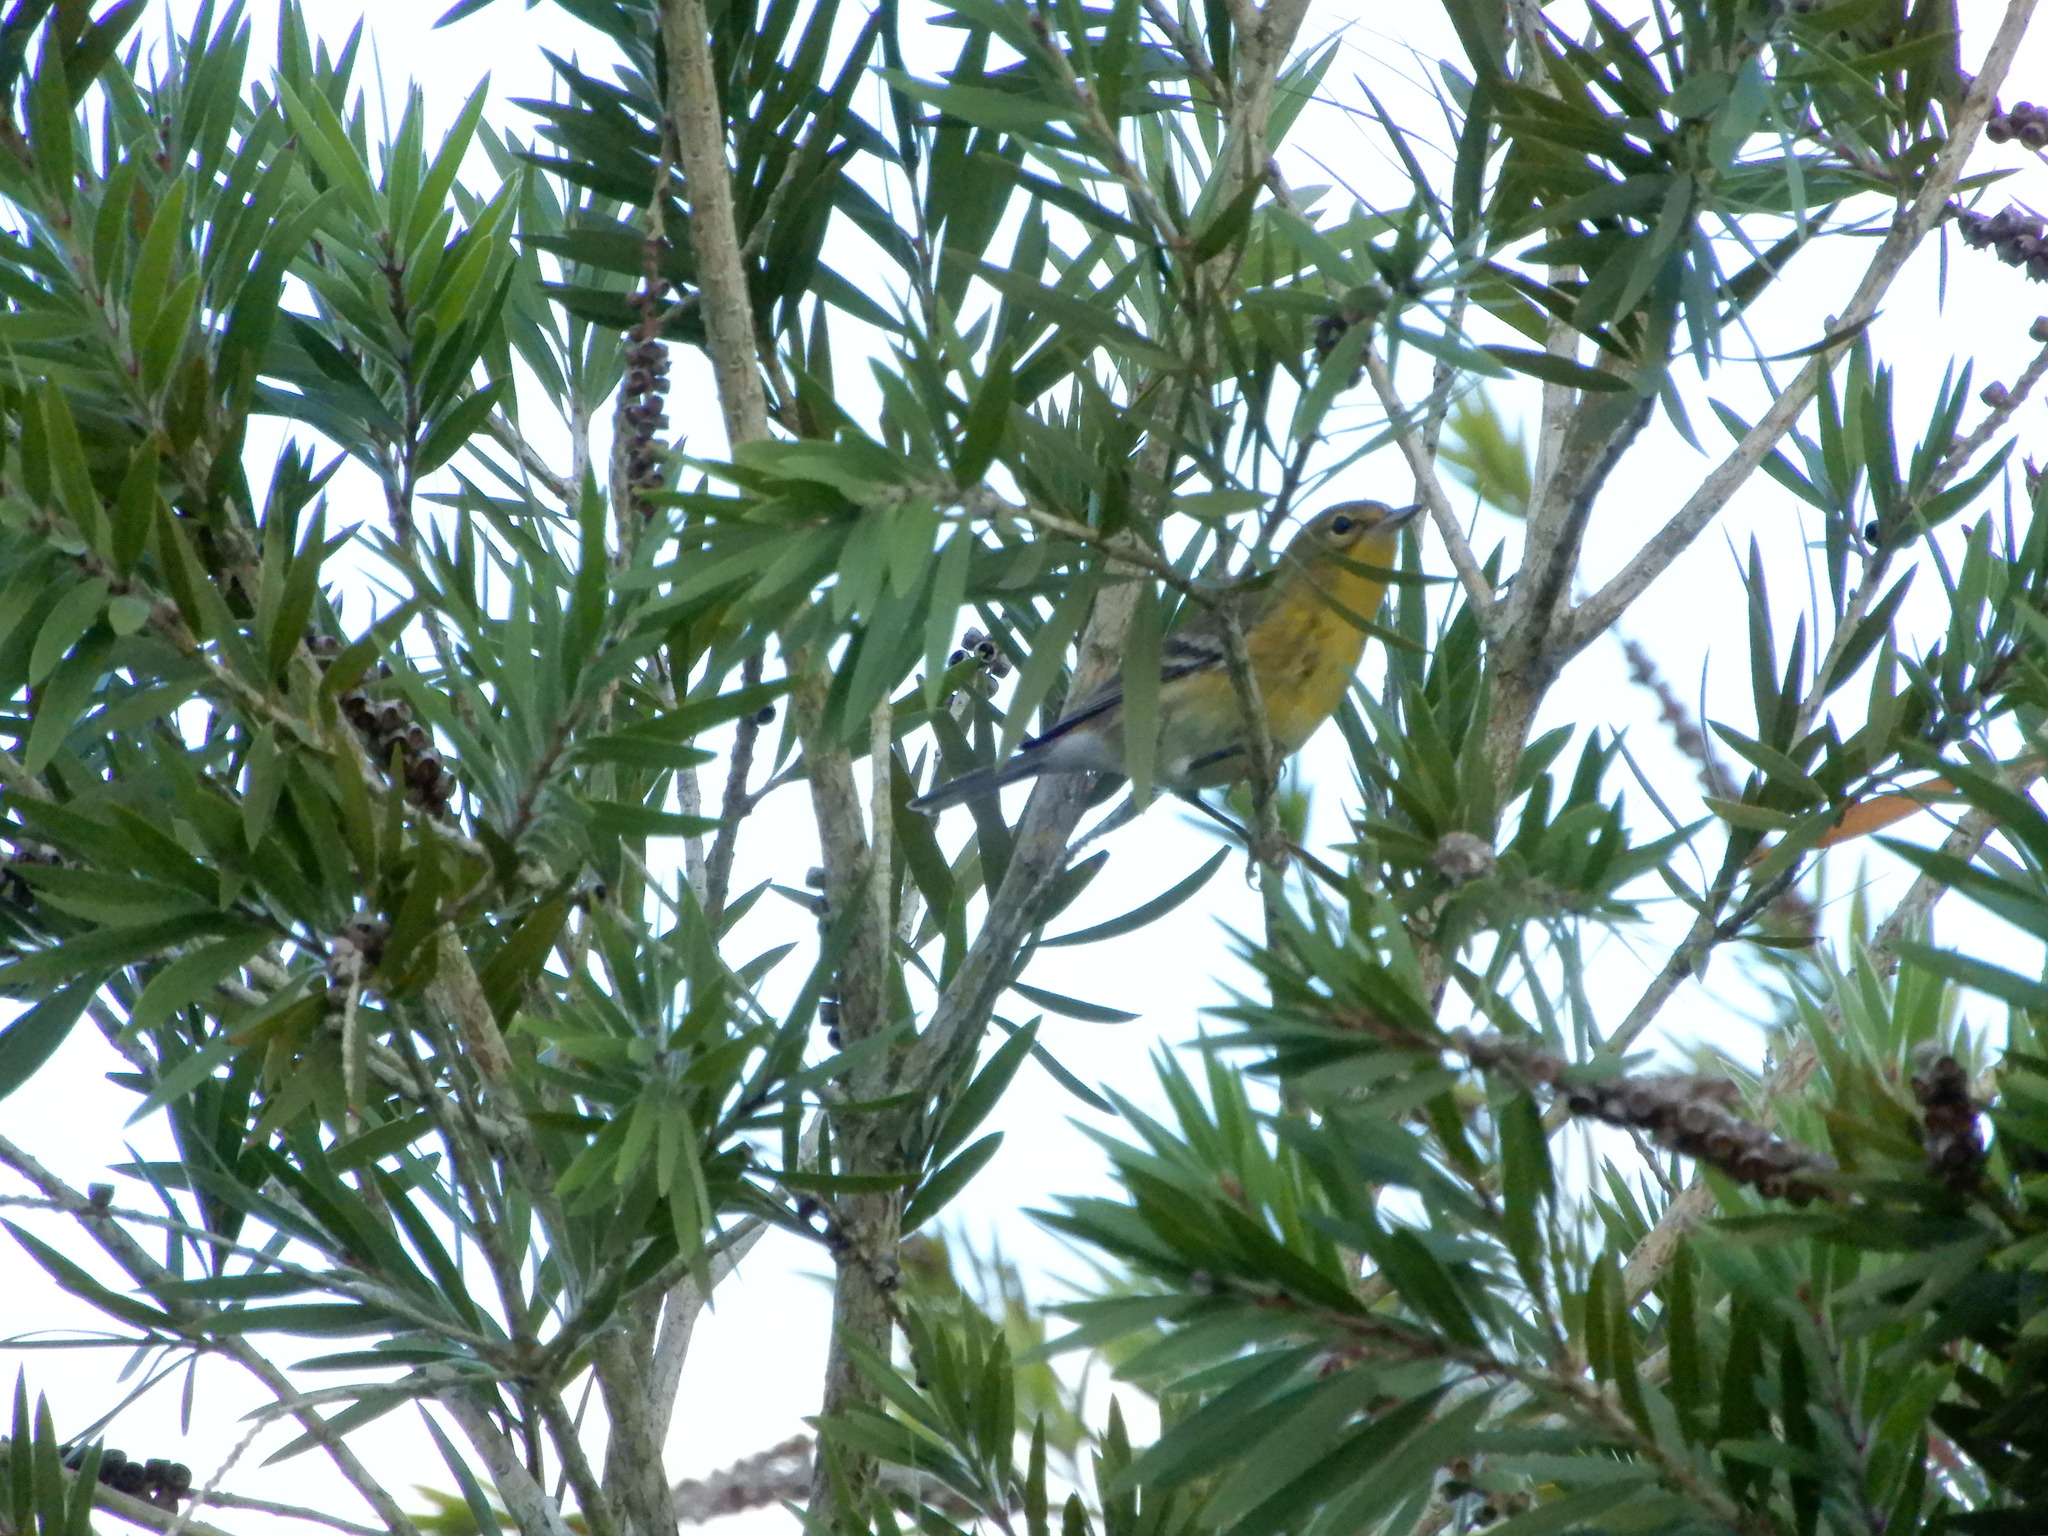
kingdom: Animalia
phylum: Chordata
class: Aves
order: Passeriformes
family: Parulidae
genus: Setophaga
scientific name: Setophaga pinus
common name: Pine warbler
